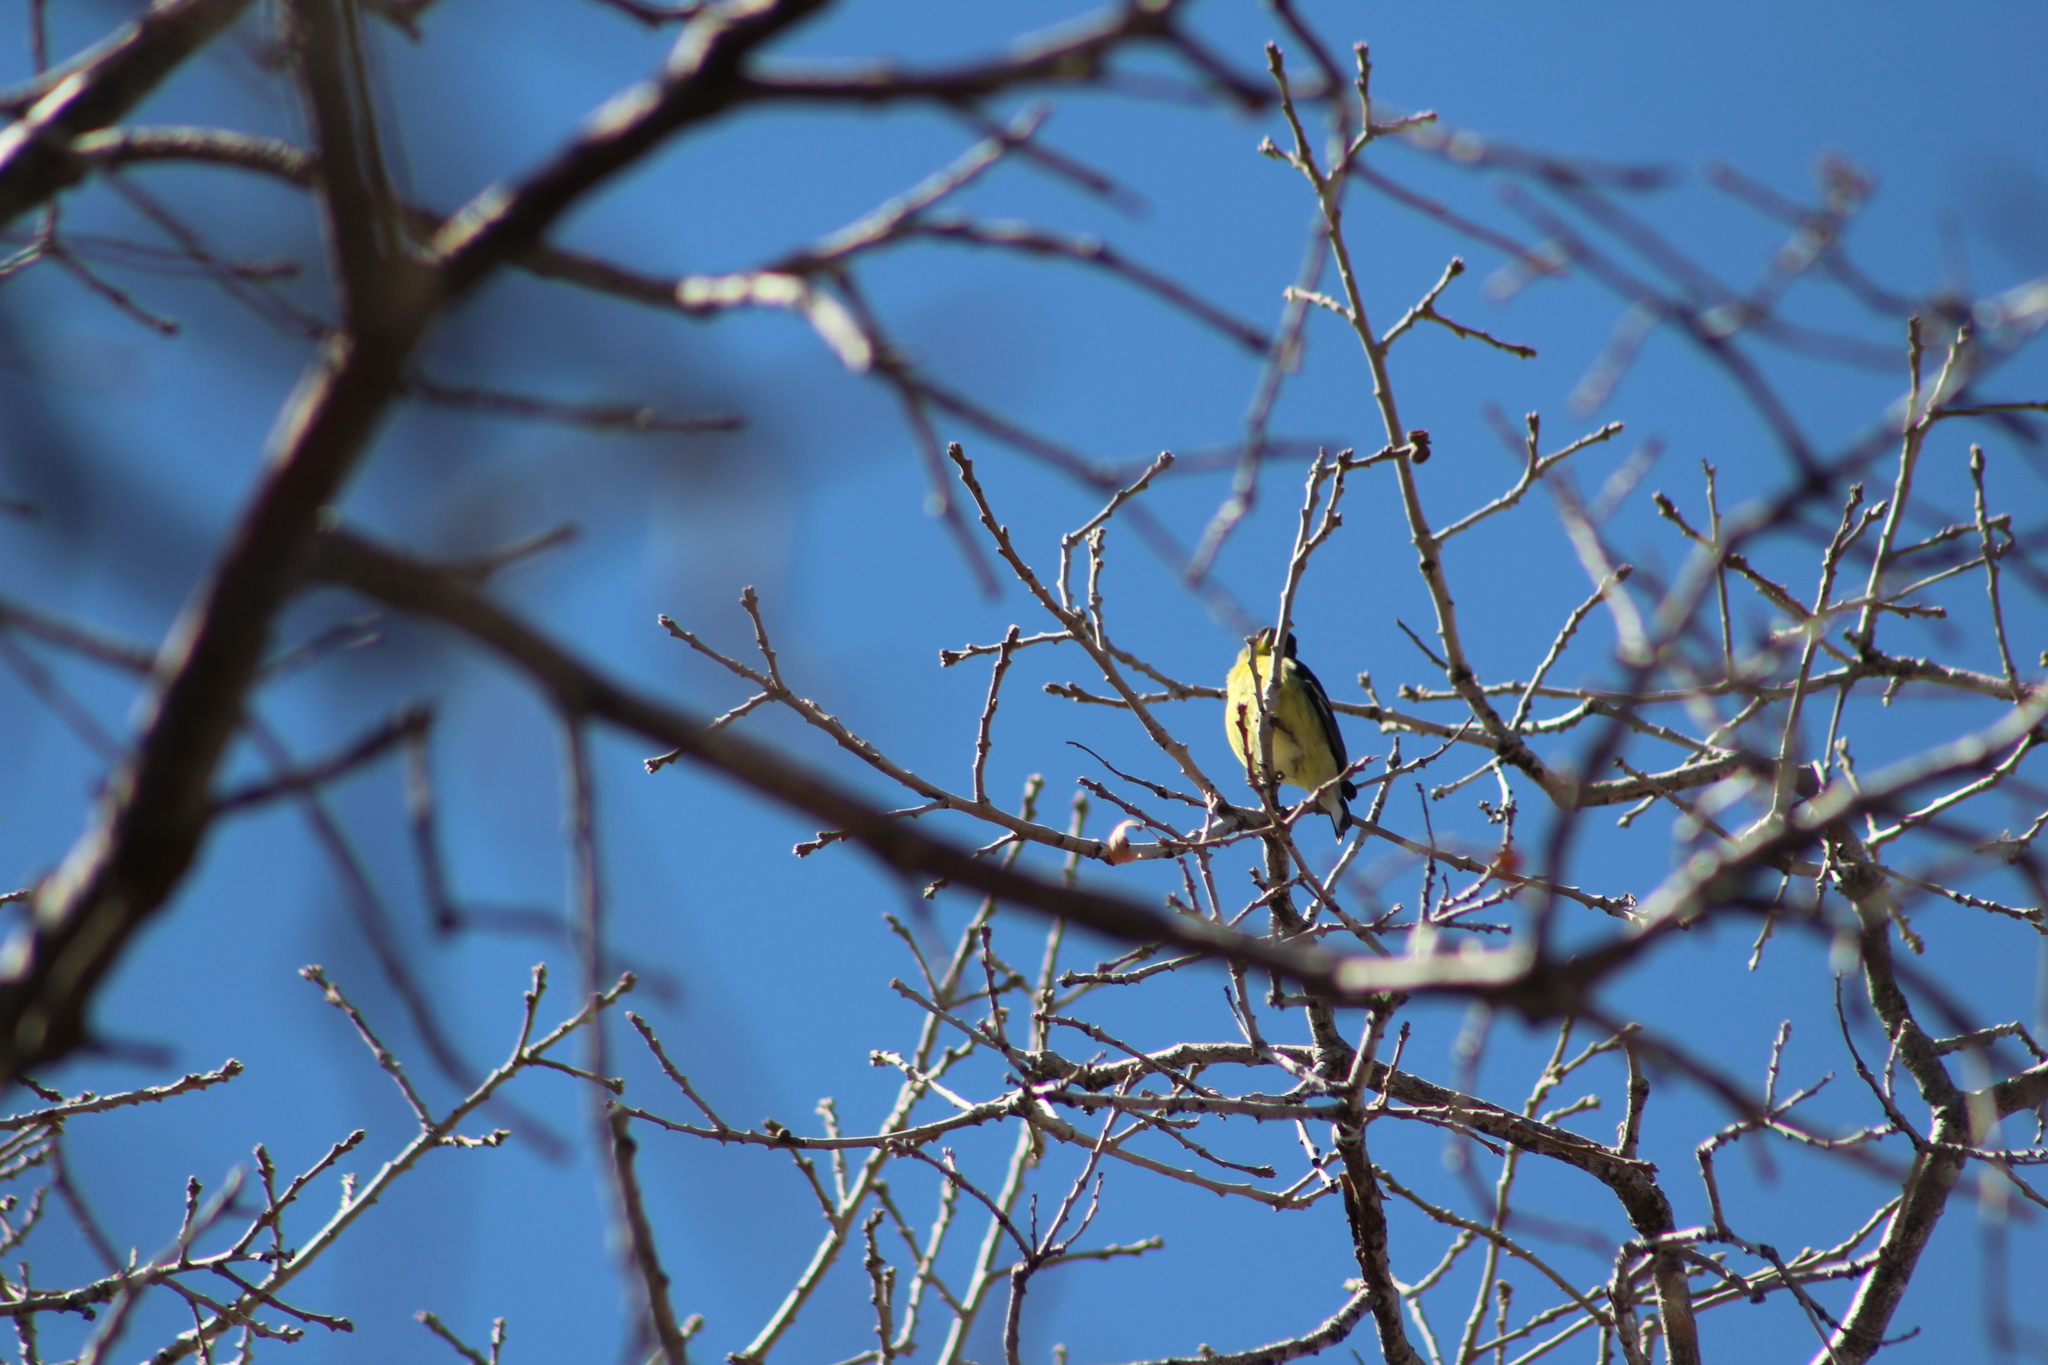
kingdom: Animalia
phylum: Chordata
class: Aves
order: Passeriformes
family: Fringillidae
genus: Spinus
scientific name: Spinus psaltria
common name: Lesser goldfinch
